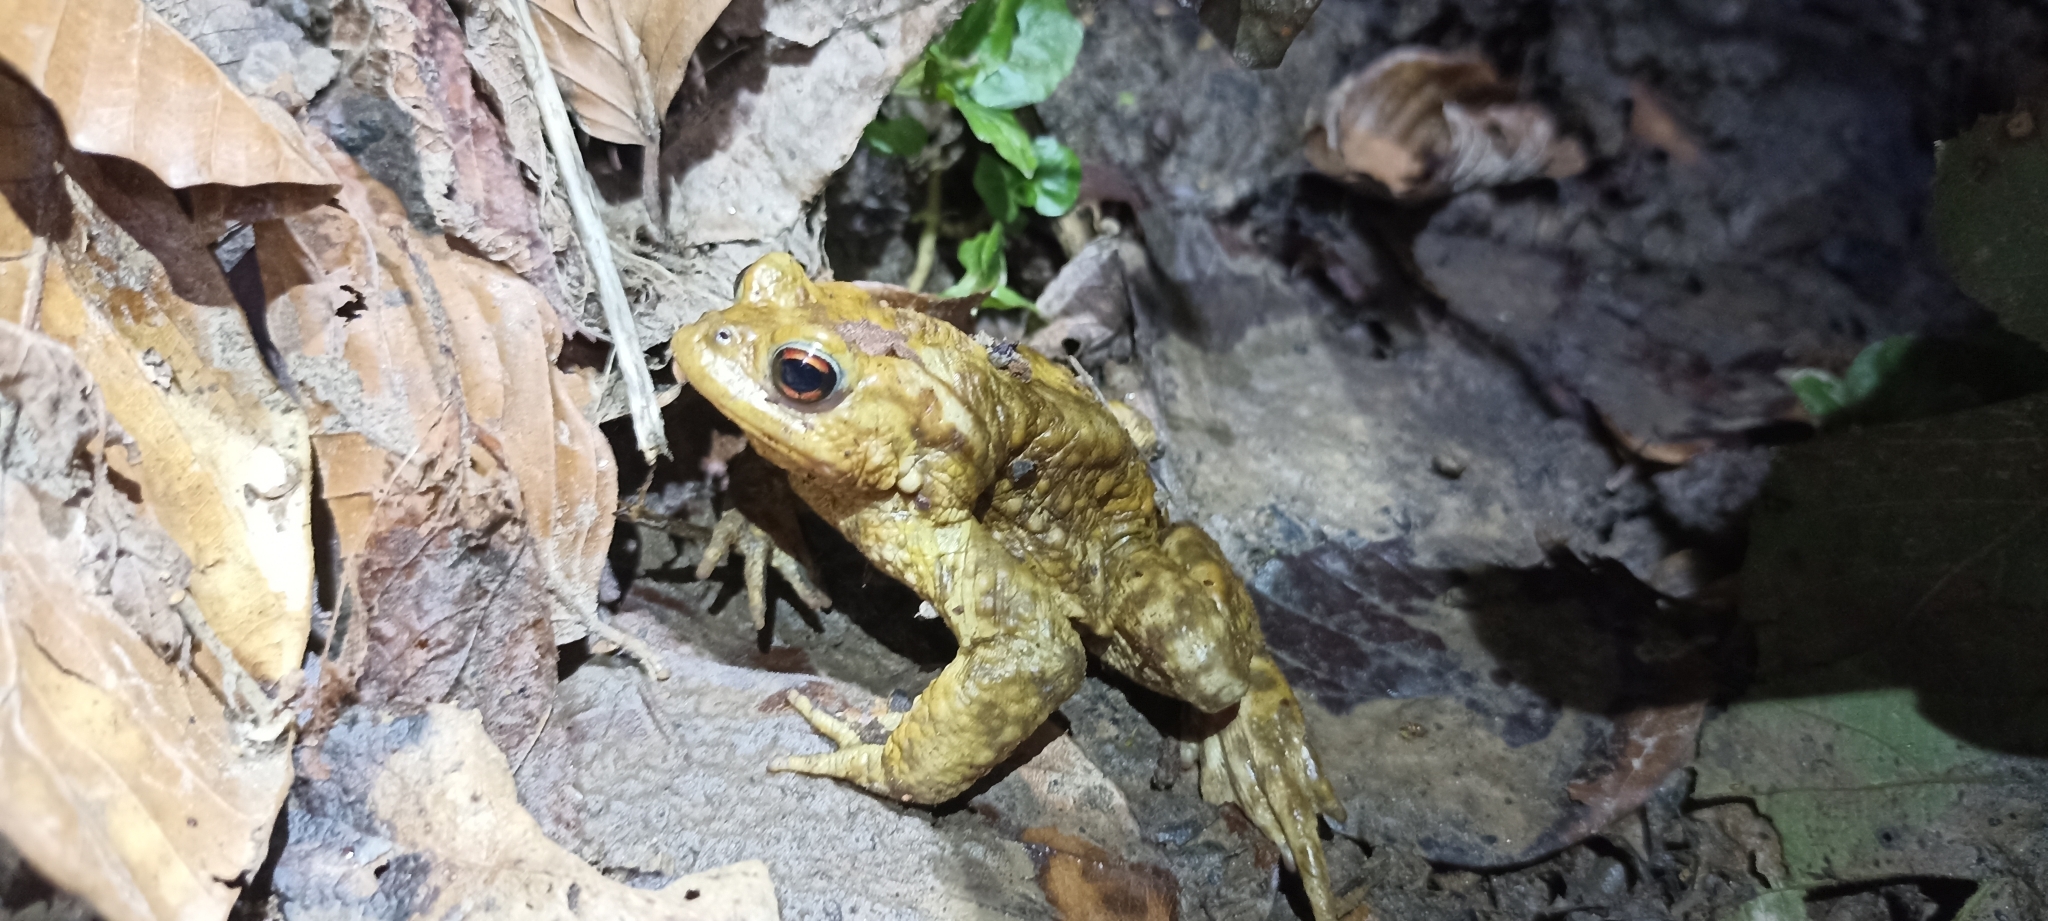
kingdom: Animalia
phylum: Chordata
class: Amphibia
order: Anura
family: Bufonidae
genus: Bufo
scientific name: Bufo spinosus
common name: Western common toad
